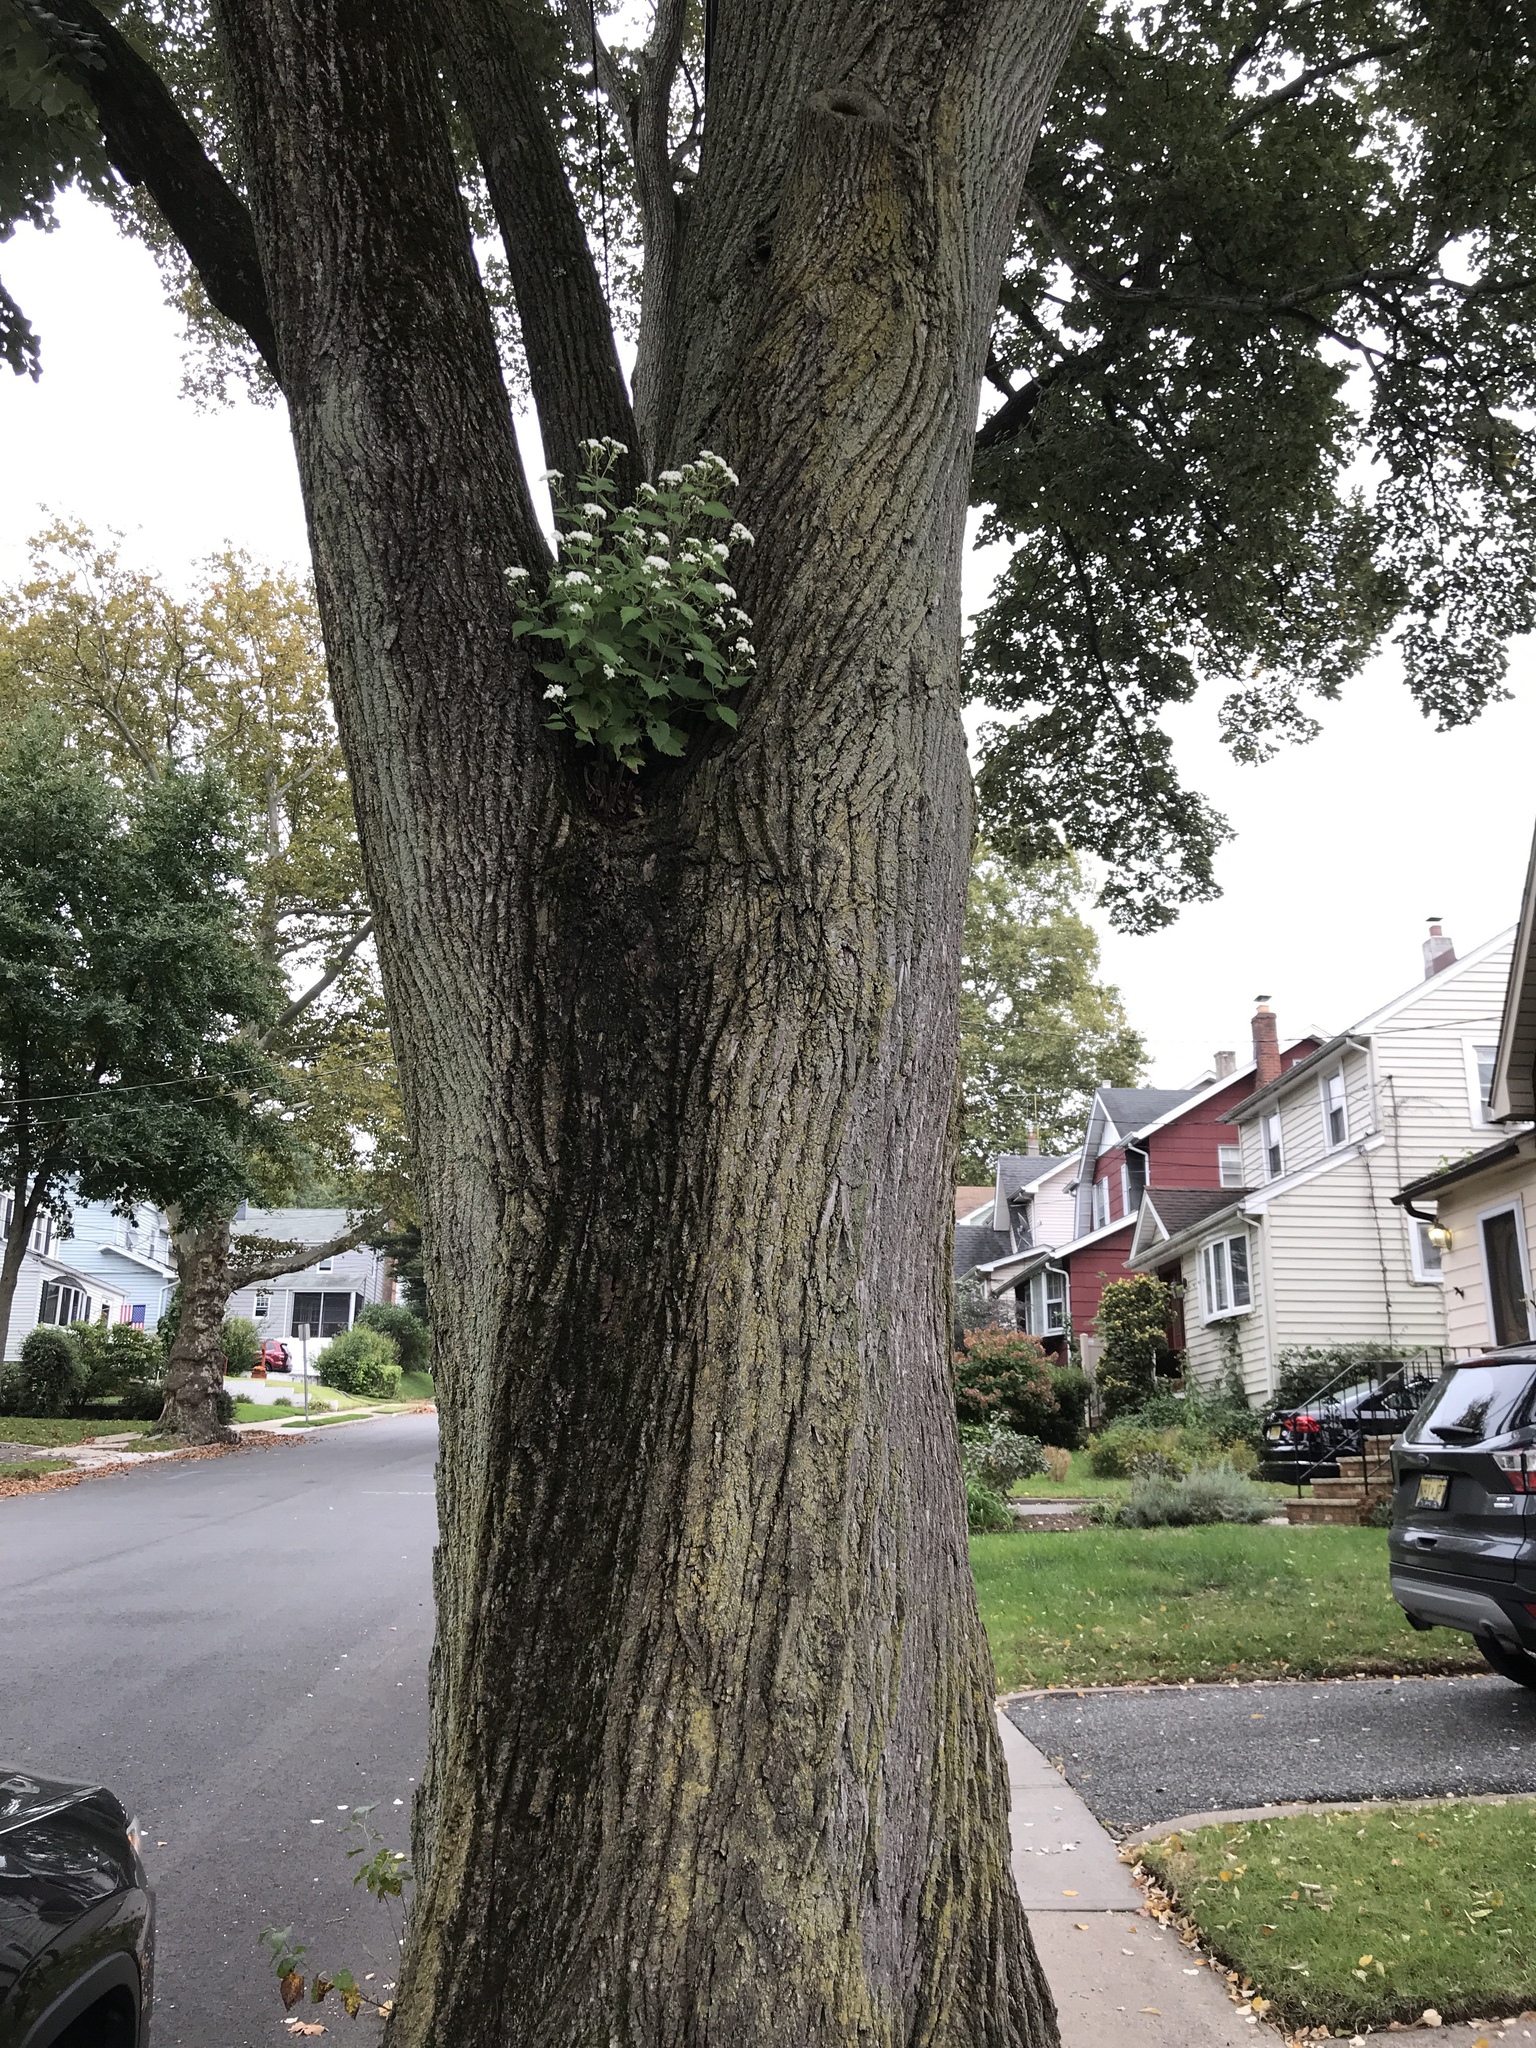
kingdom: Plantae
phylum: Tracheophyta
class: Magnoliopsida
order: Asterales
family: Asteraceae
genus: Ageratina
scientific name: Ageratina altissima
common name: White snakeroot
